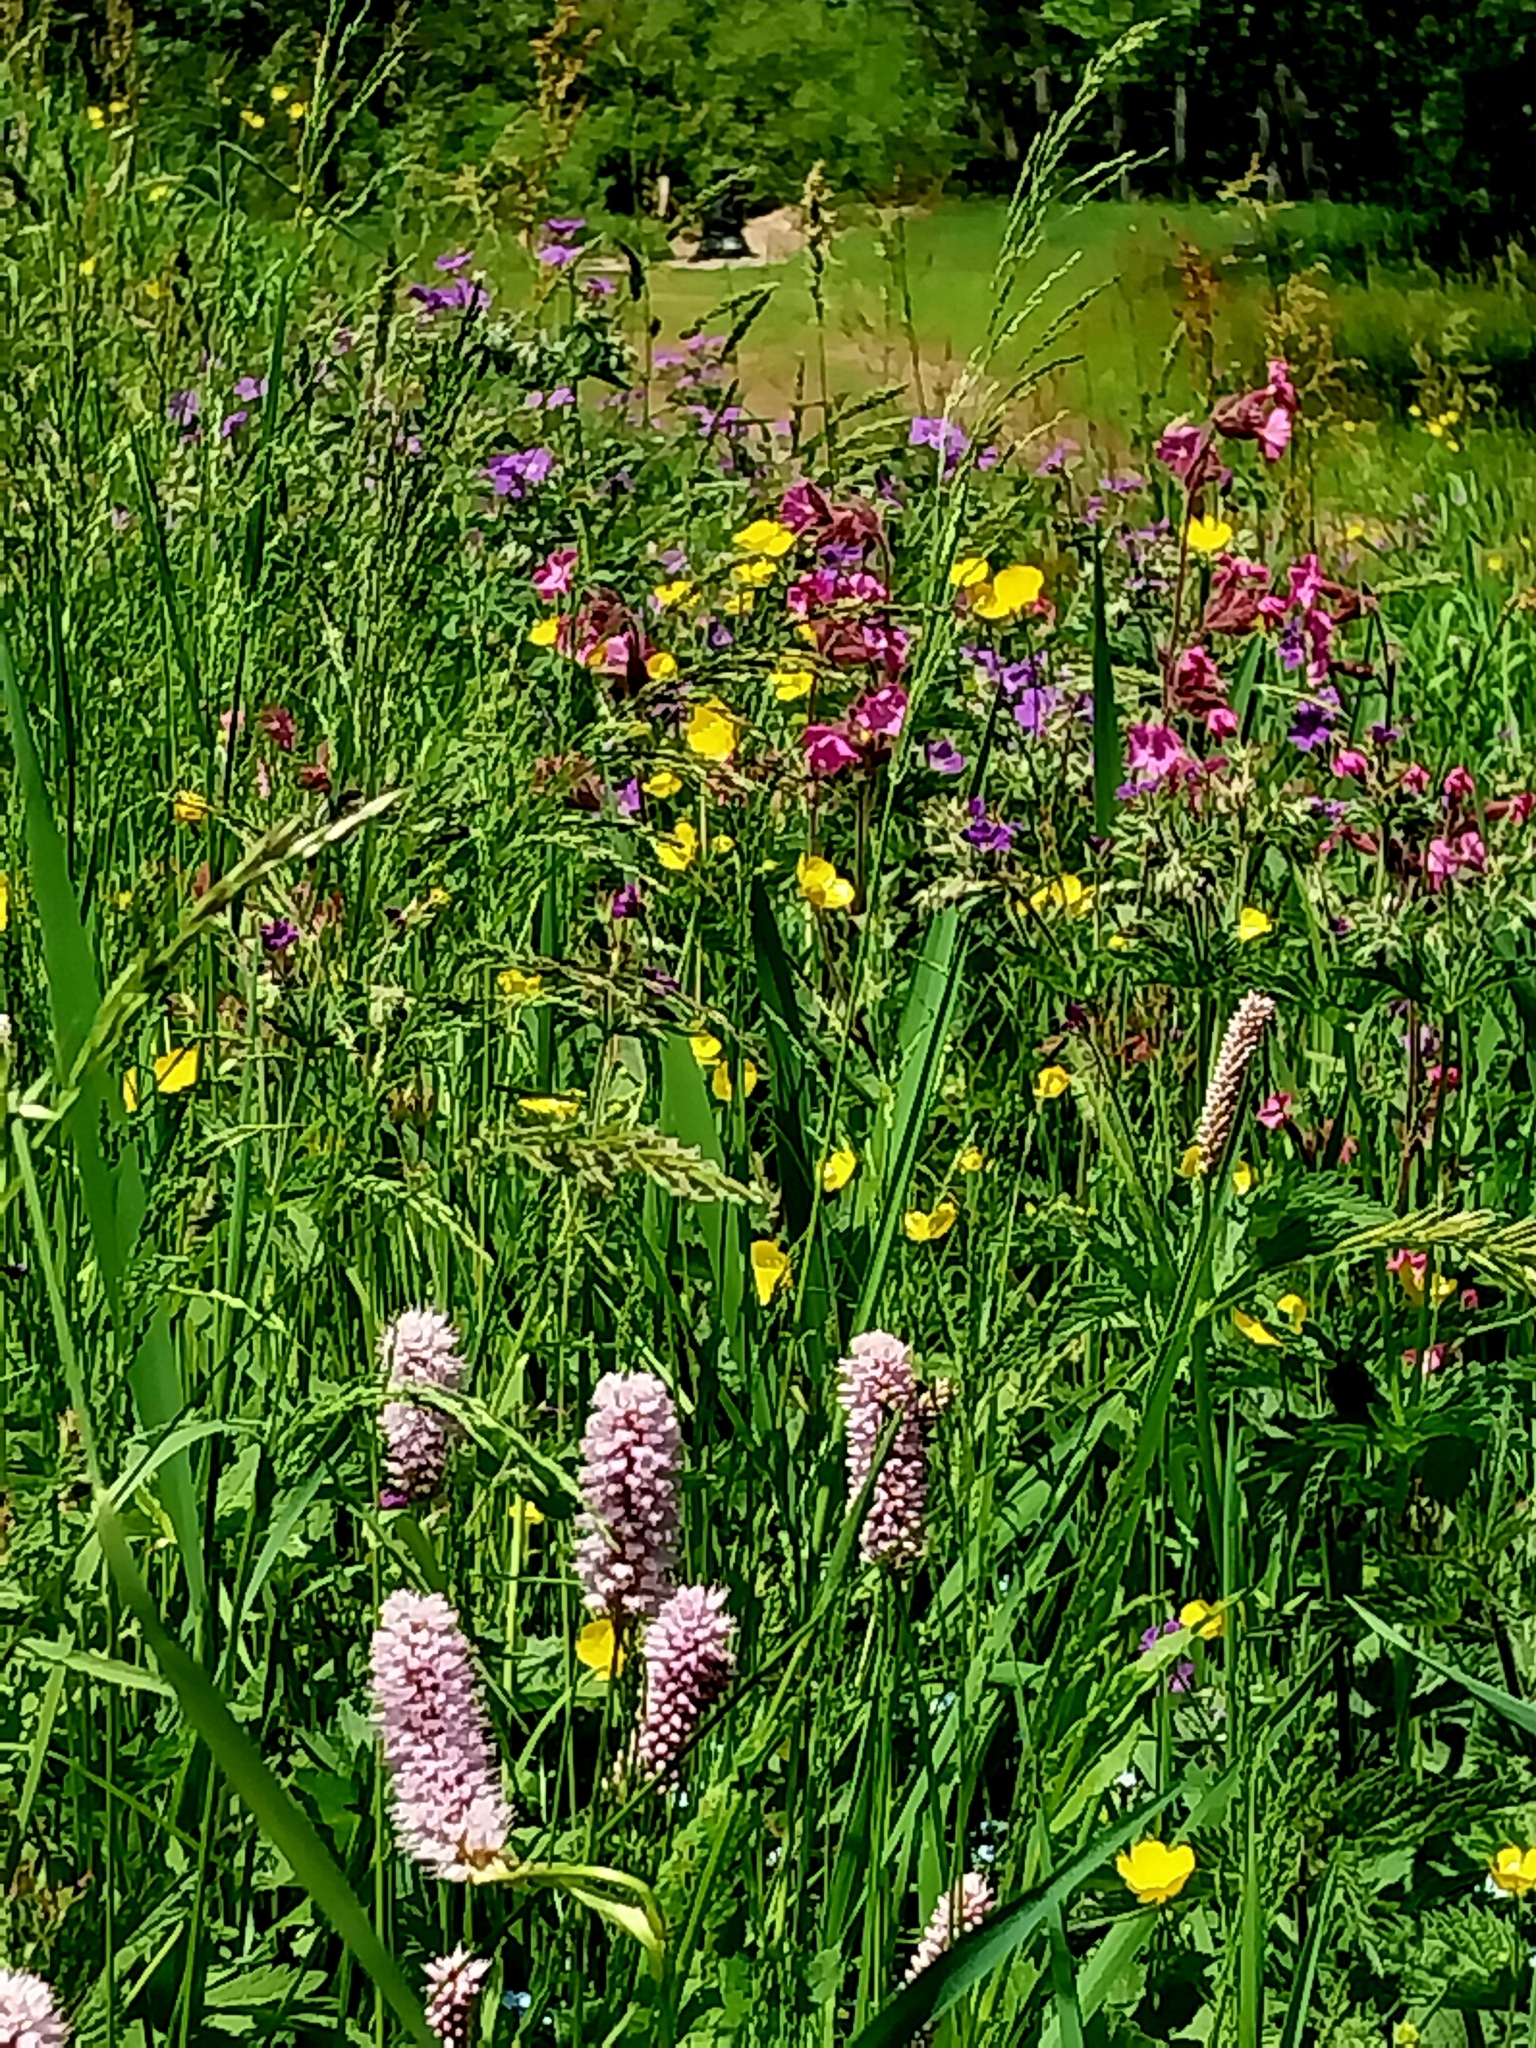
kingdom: Plantae
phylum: Tracheophyta
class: Magnoliopsida
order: Caryophyllales
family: Polygonaceae
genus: Bistorta
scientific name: Bistorta officinalis
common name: Common bistort
